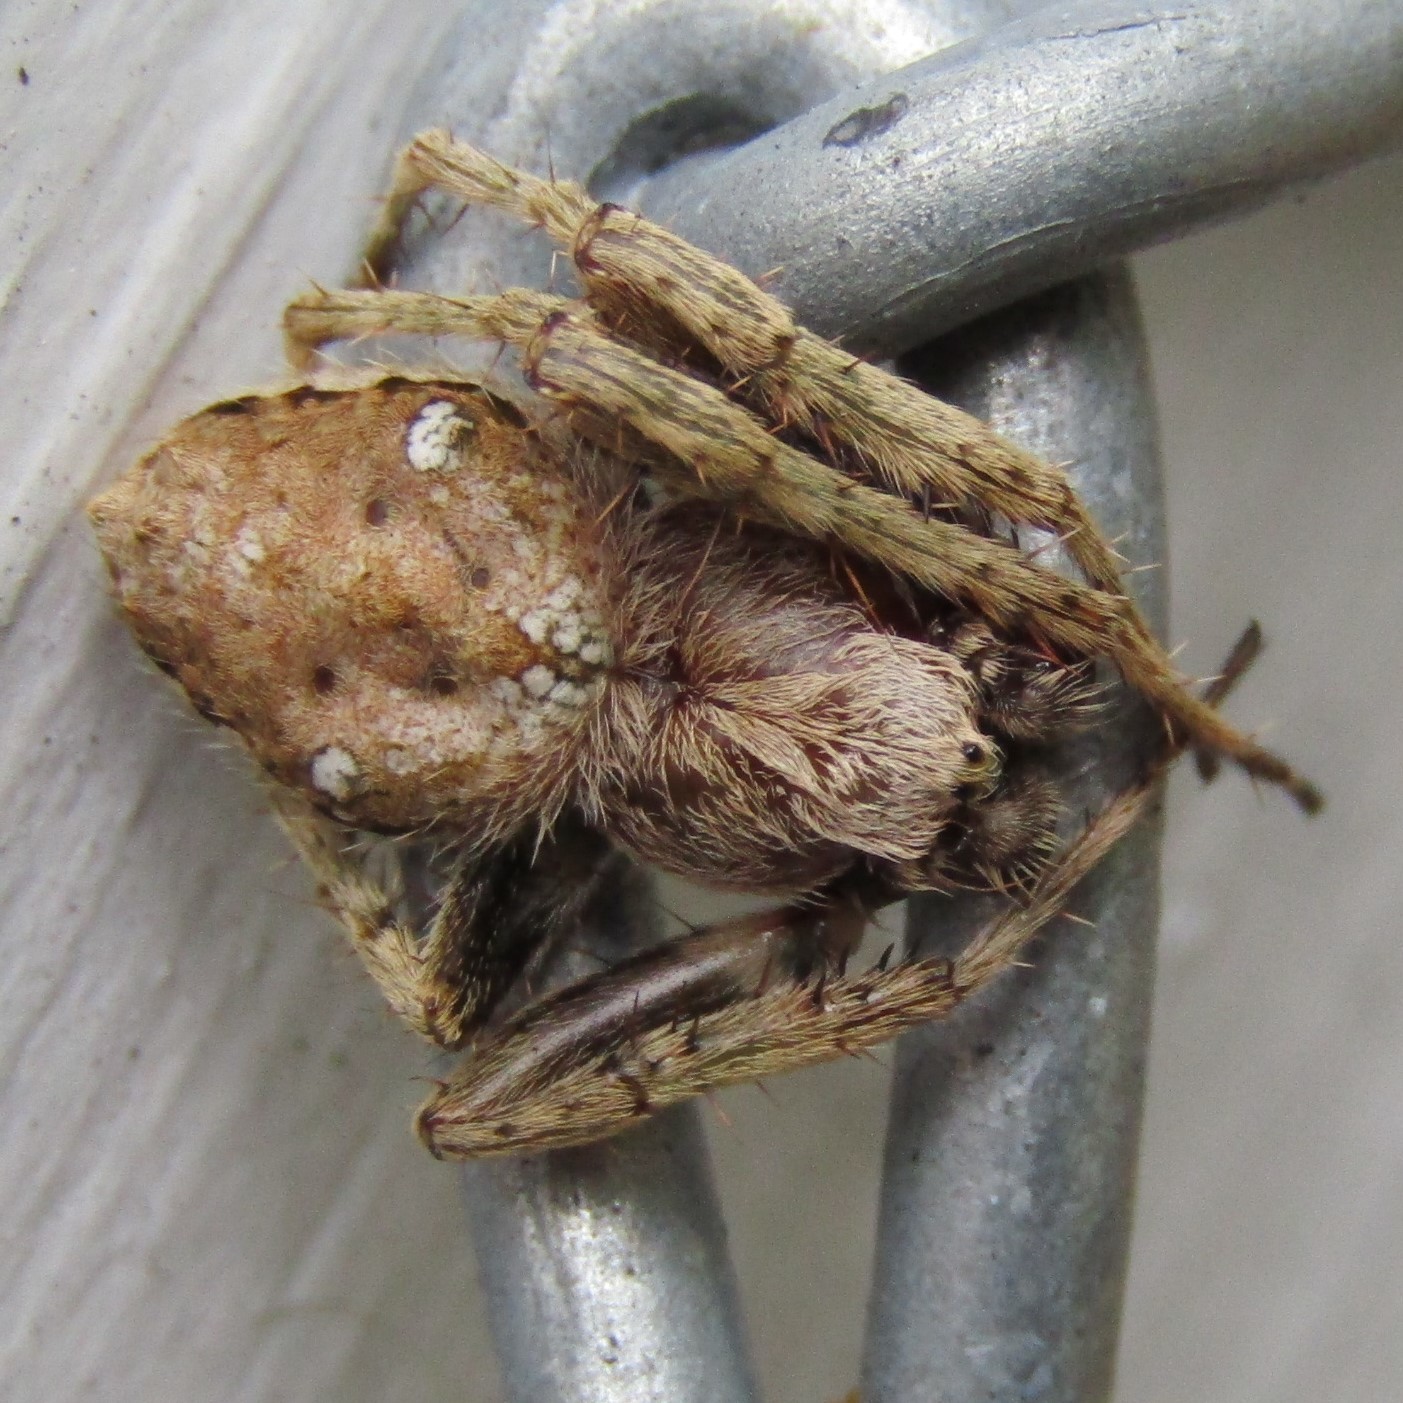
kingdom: Animalia
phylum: Arthropoda
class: Arachnida
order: Araneae
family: Araneidae
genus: Eriophora
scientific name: Eriophora pustulosa
